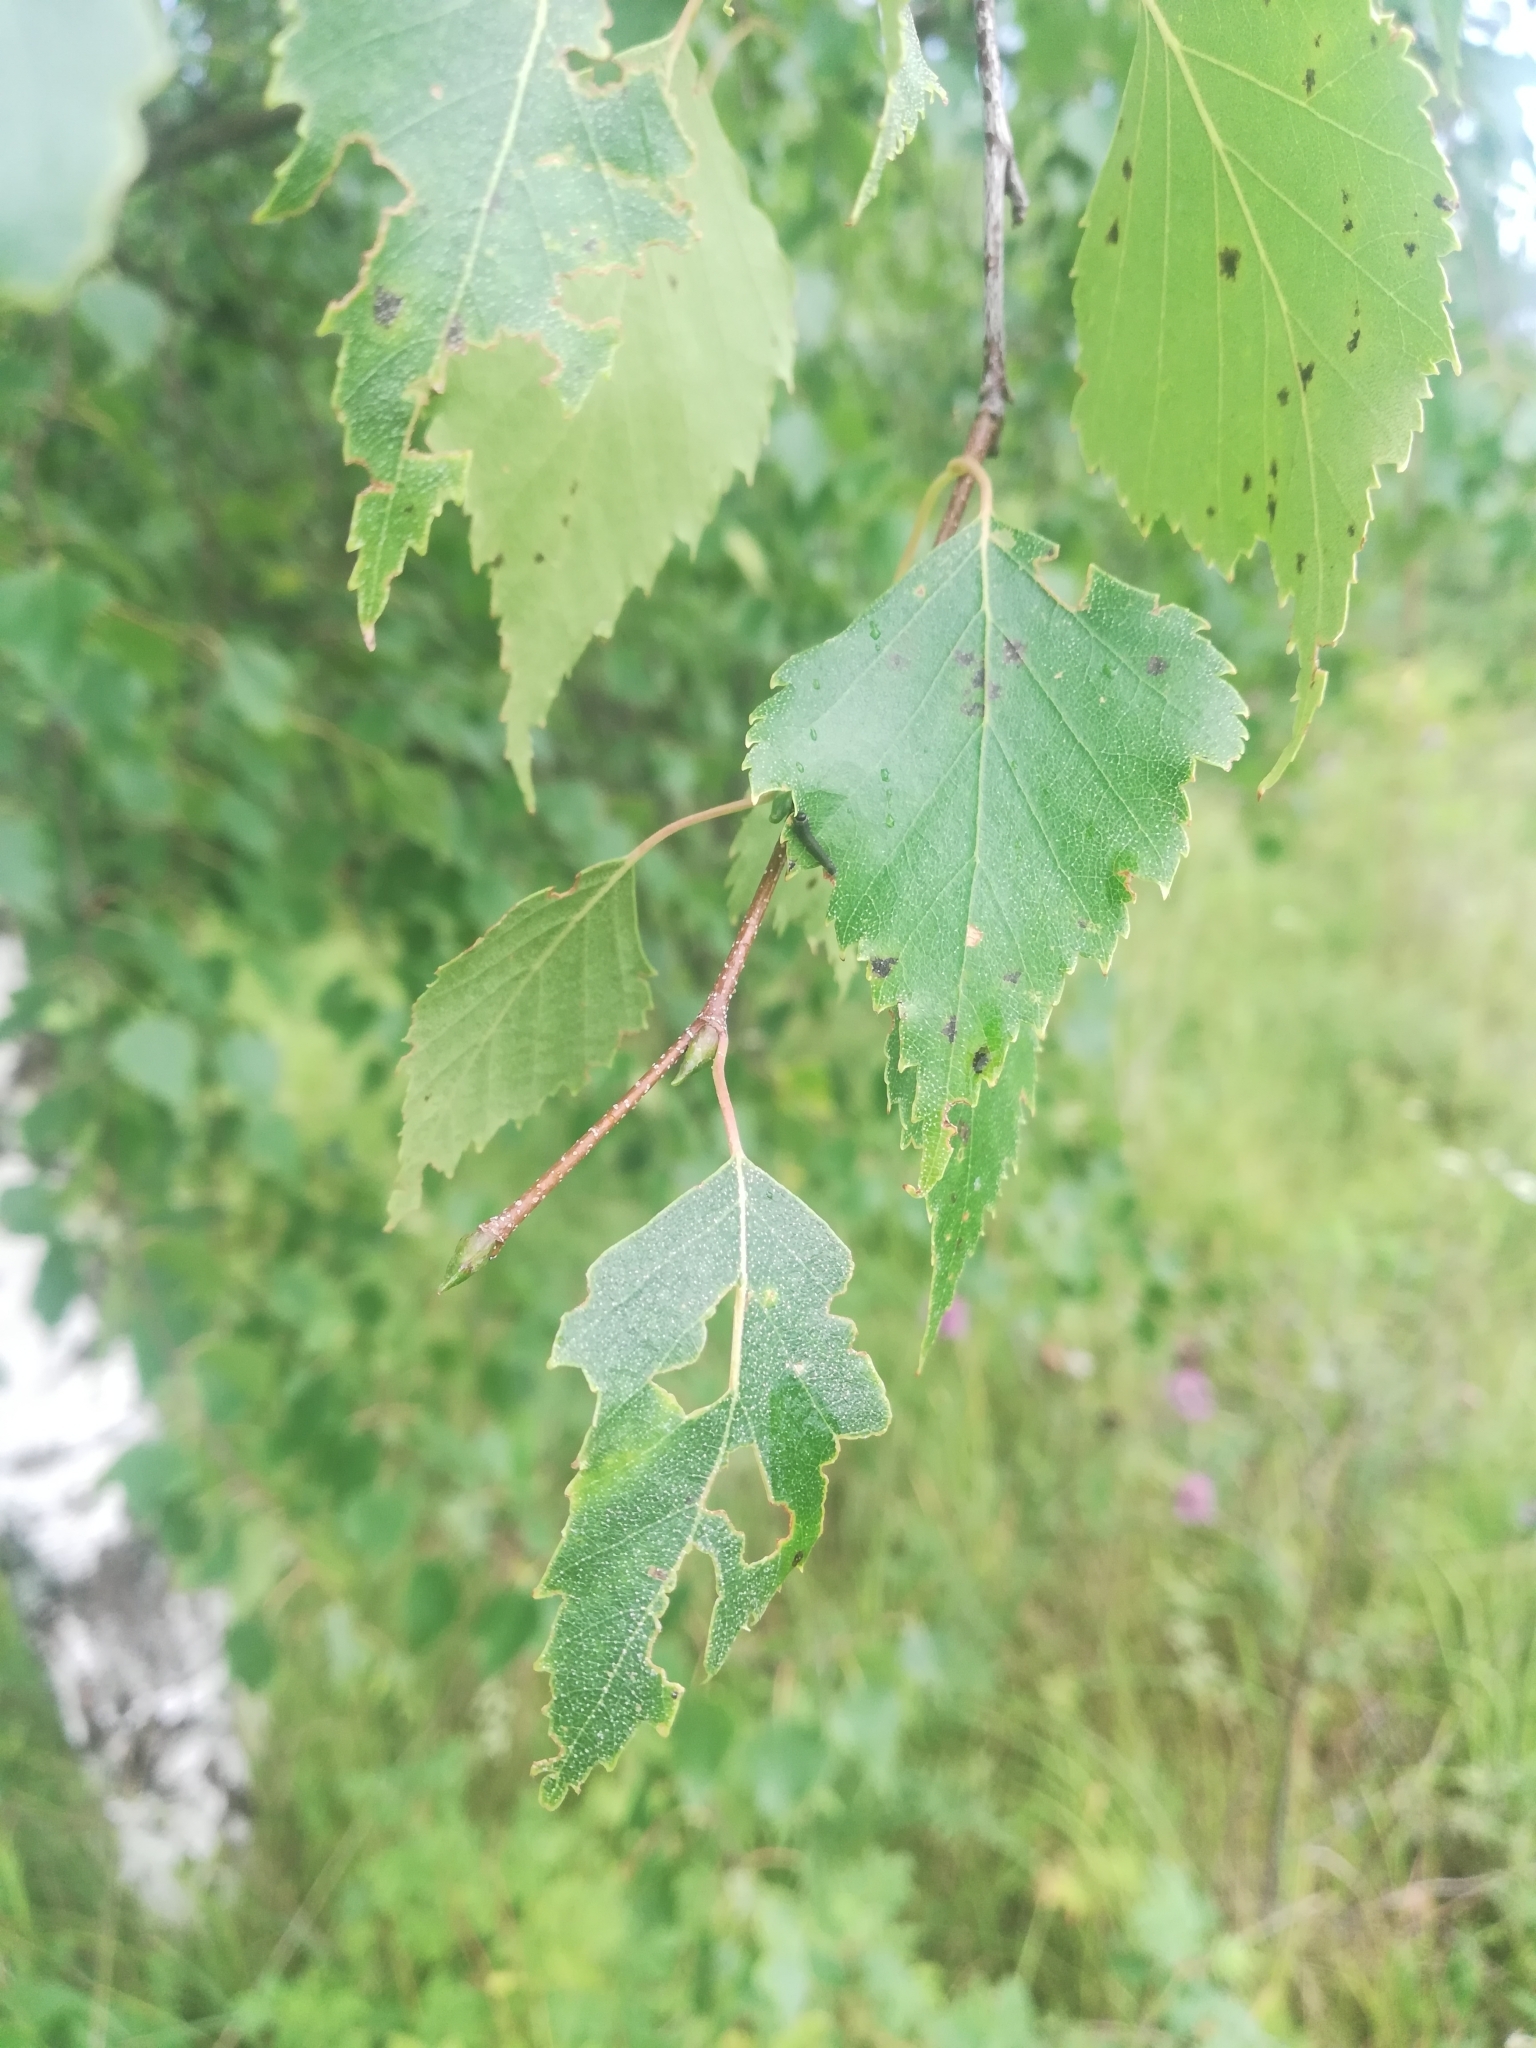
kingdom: Plantae
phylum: Tracheophyta
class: Magnoliopsida
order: Fagales
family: Betulaceae
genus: Betula
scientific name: Betula pendula
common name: Silver birch
